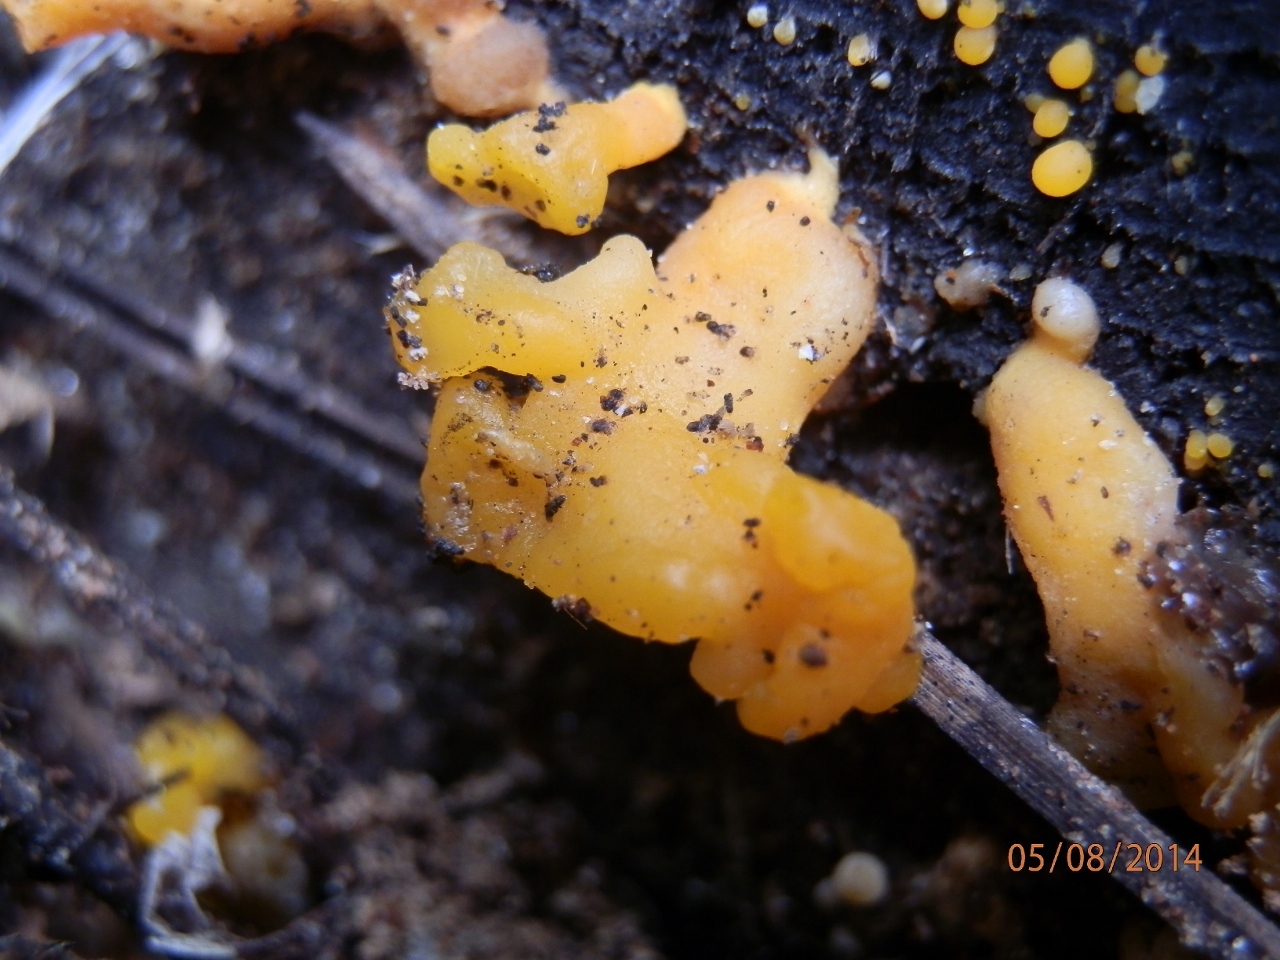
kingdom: Fungi
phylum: Basidiomycota
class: Dacrymycetes
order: Dacrymycetales
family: Dacrymycetaceae
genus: Dacrymyces
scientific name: Dacrymyces capitatus
